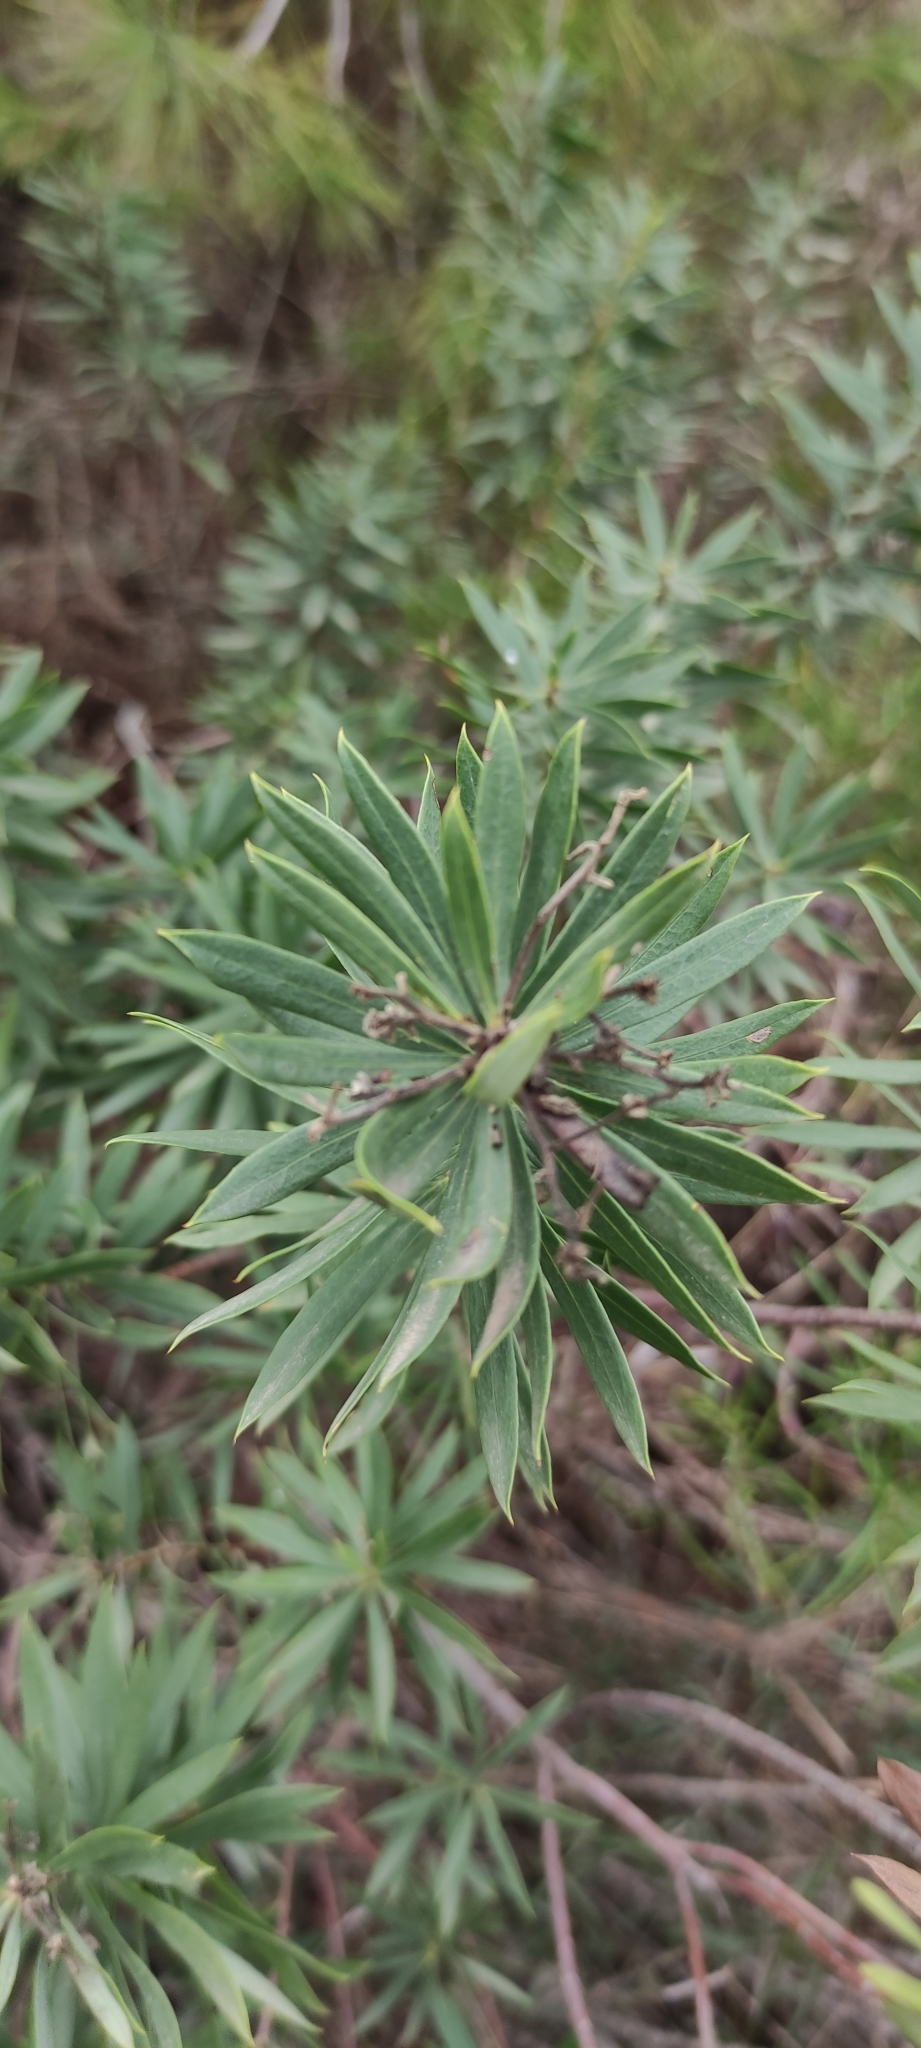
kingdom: Plantae
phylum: Tracheophyta
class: Magnoliopsida
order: Malvales
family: Thymelaeaceae
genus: Daphne
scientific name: Daphne gnidium
